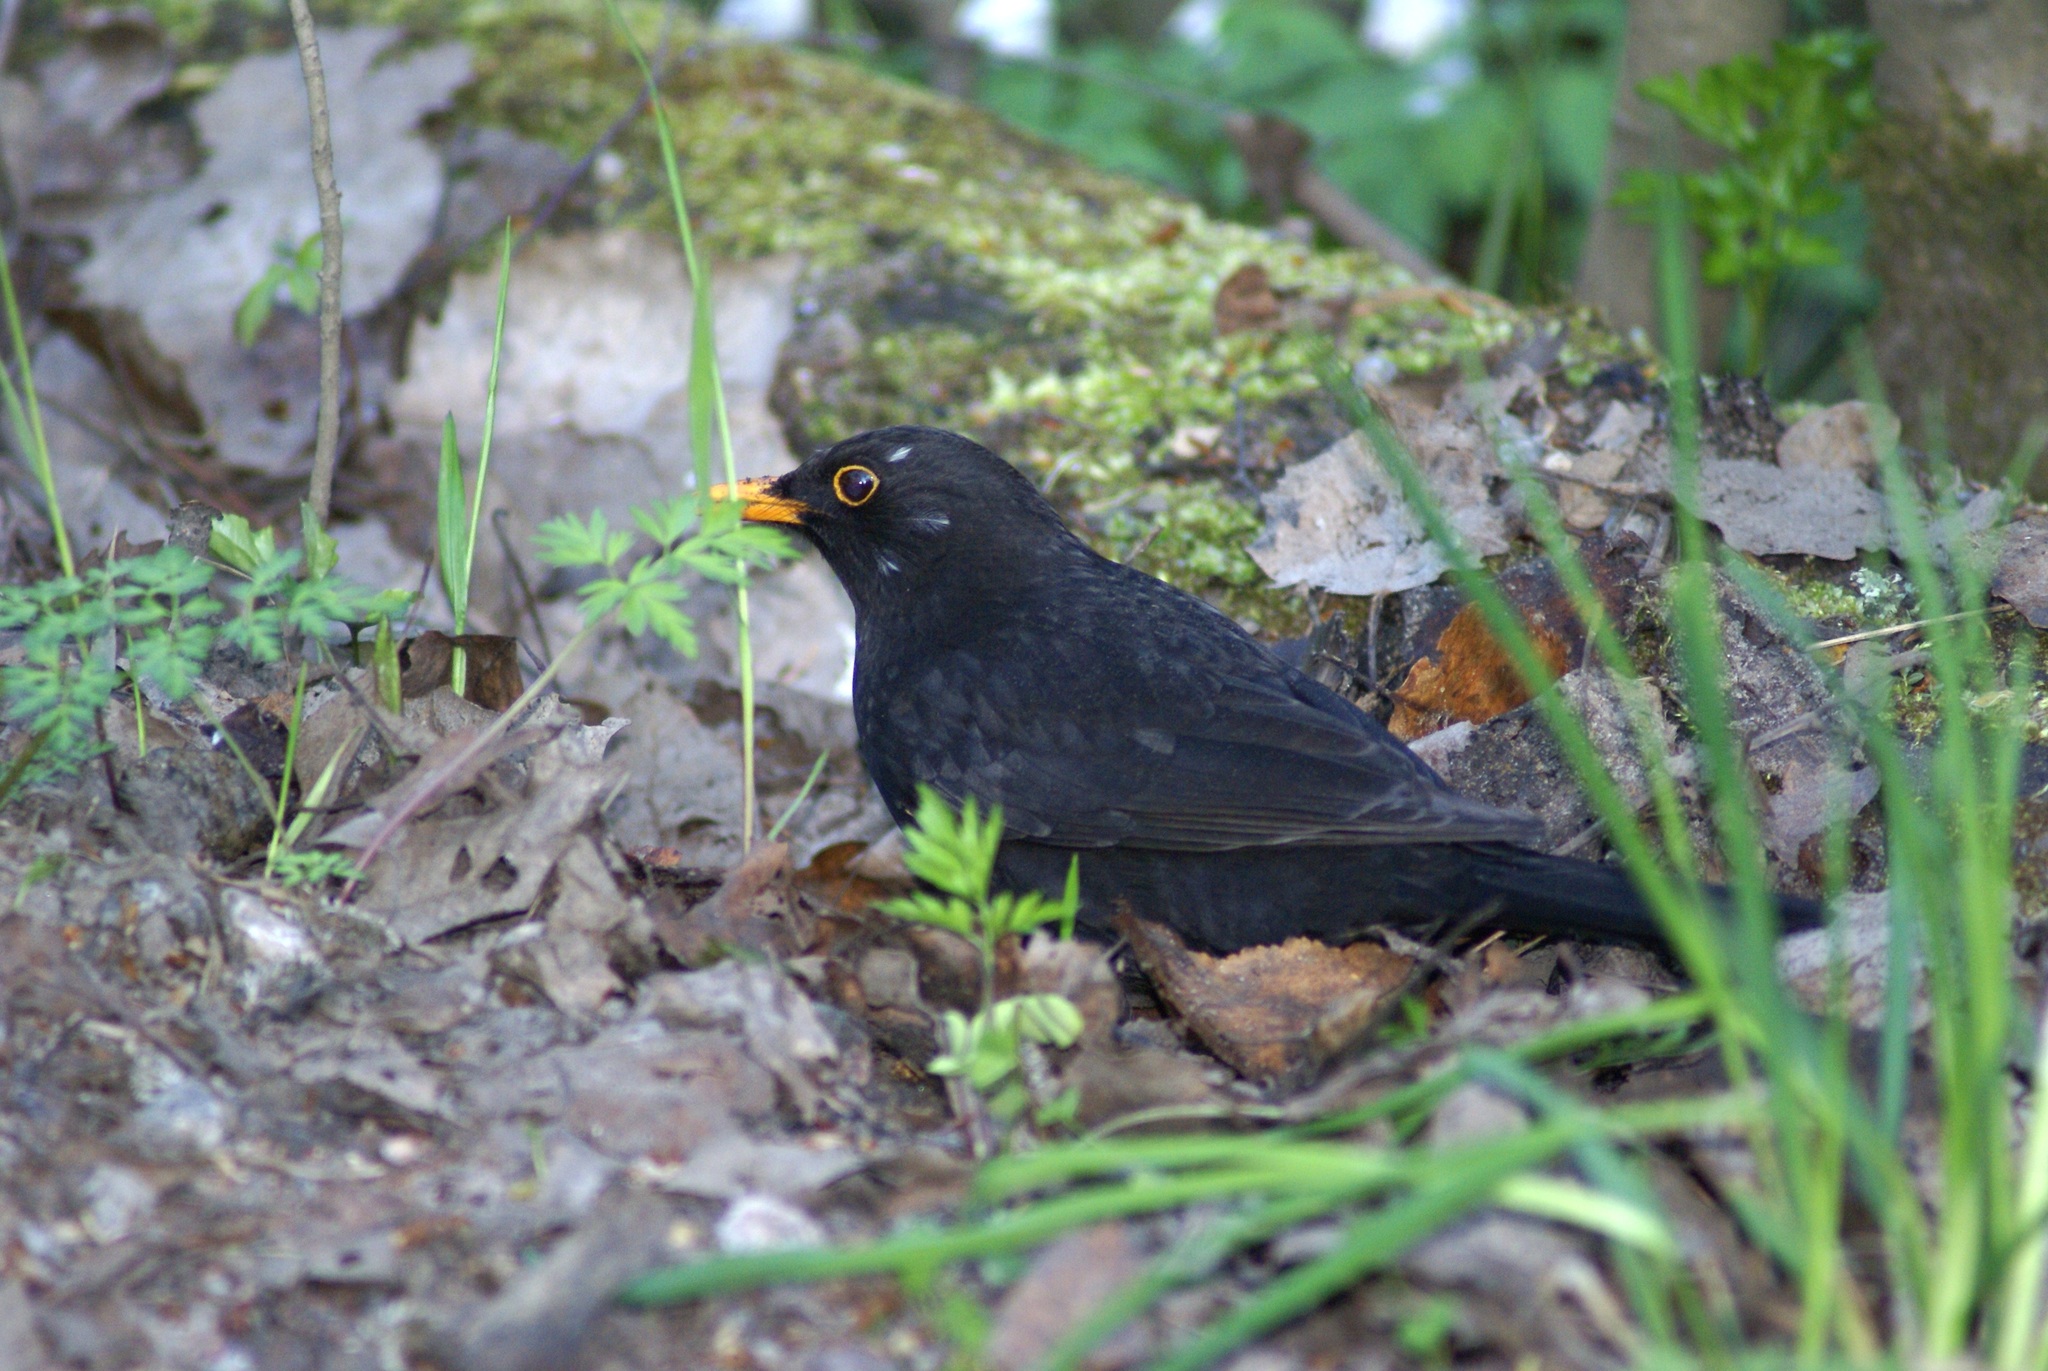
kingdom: Animalia
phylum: Chordata
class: Aves
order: Passeriformes
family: Turdidae
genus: Turdus
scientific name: Turdus merula
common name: Common blackbird
